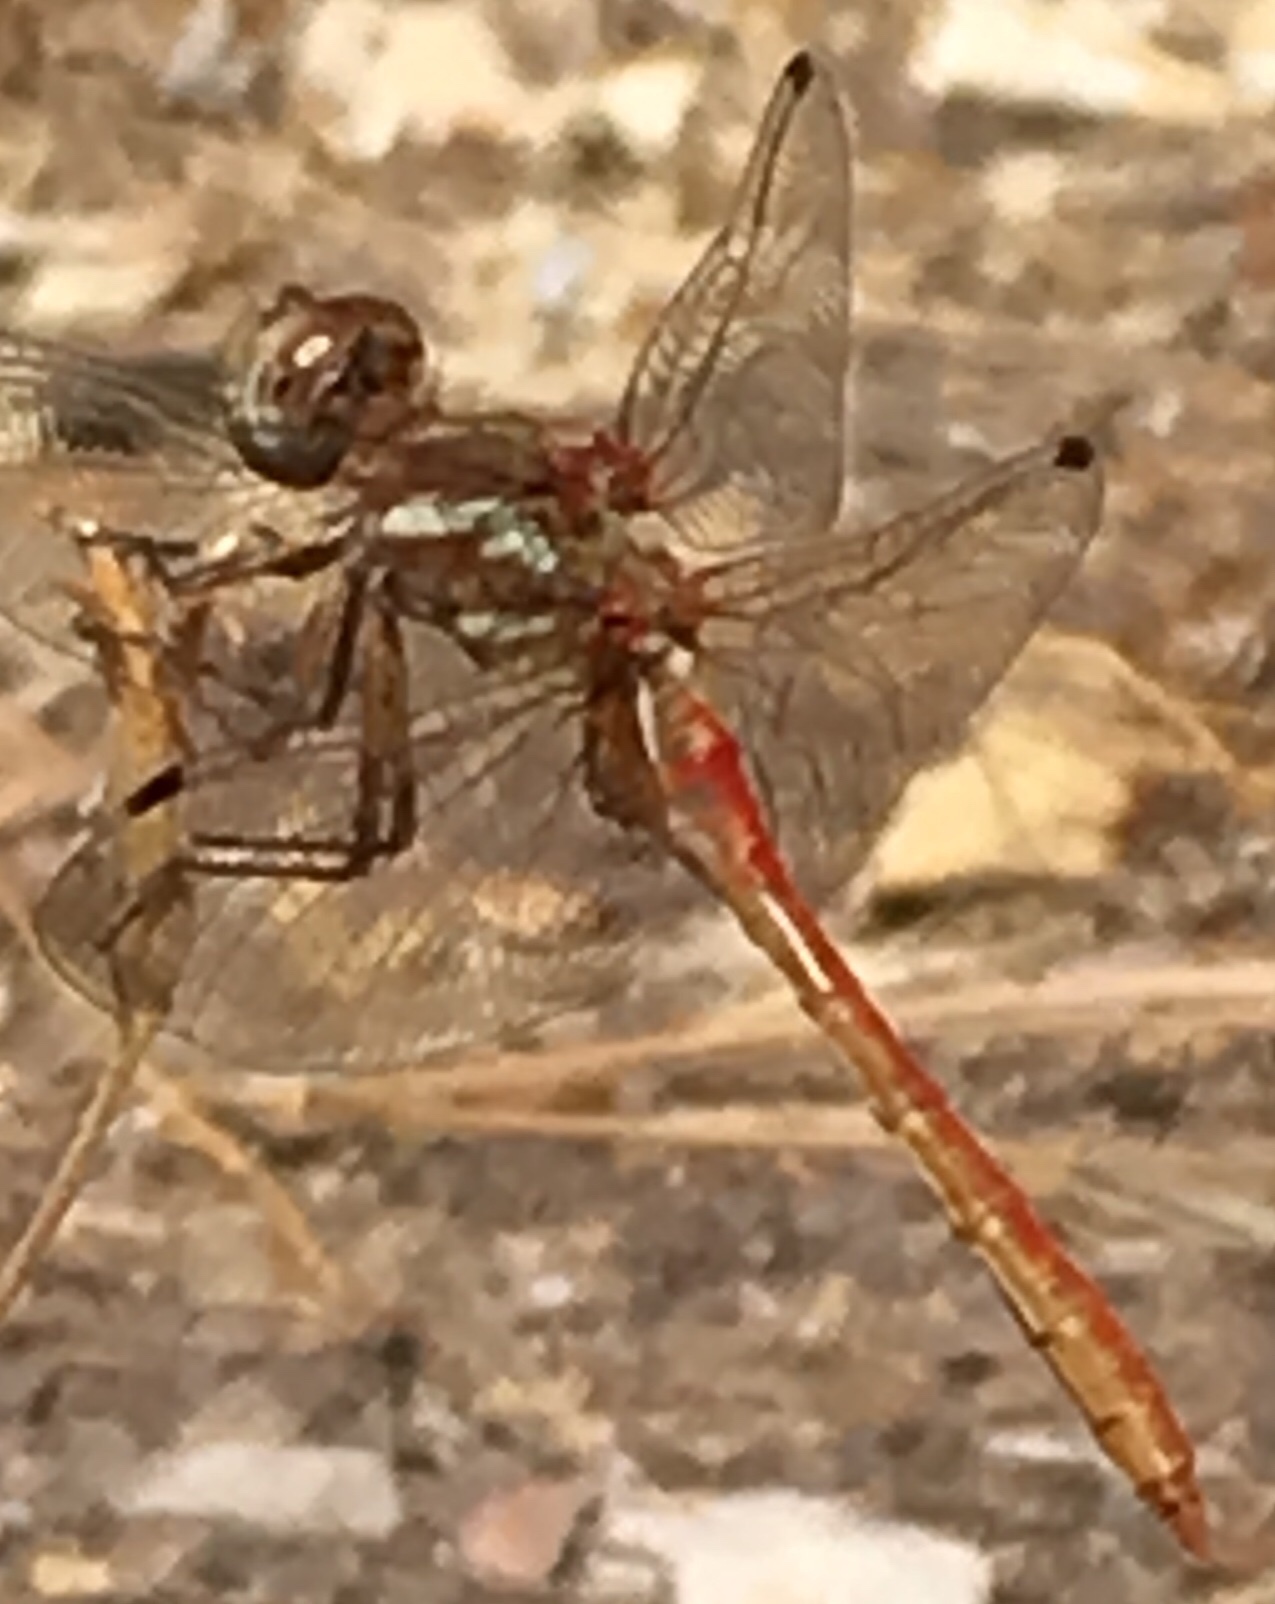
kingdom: Animalia
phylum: Arthropoda
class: Insecta
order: Odonata
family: Libellulidae
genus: Sympetrum
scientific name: Sympetrum pallipes
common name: Striped meadowhawk
